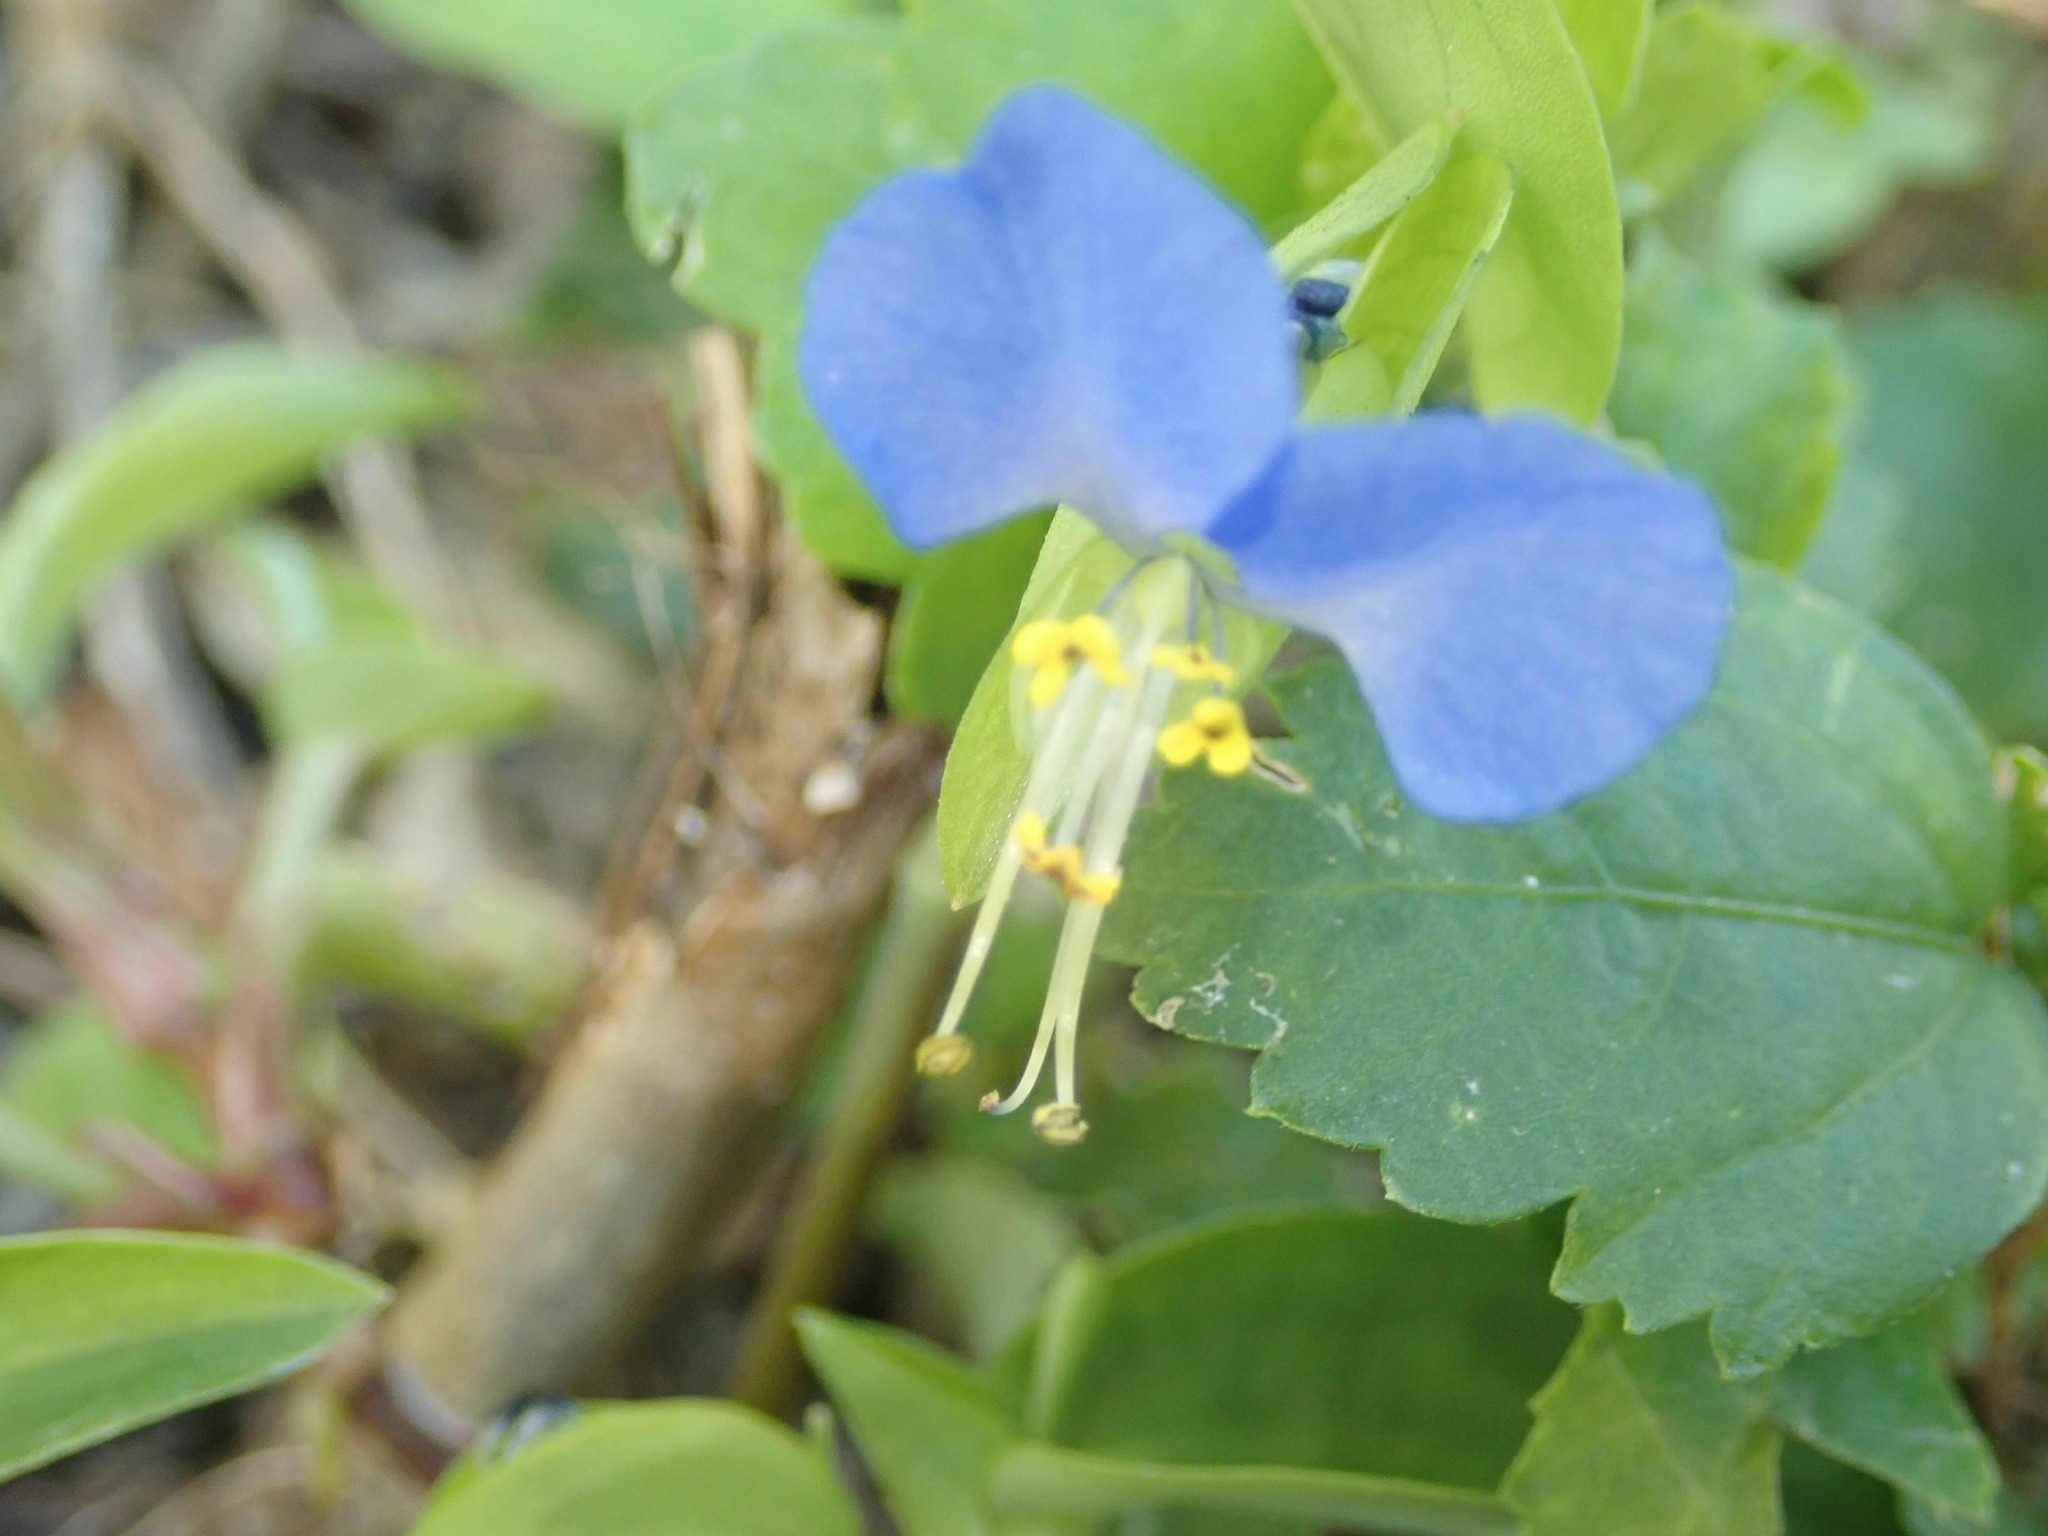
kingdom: Plantae
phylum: Tracheophyta
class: Liliopsida
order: Commelinales
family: Commelinaceae
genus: Commelina
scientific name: Commelina communis
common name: Asiatic dayflower
